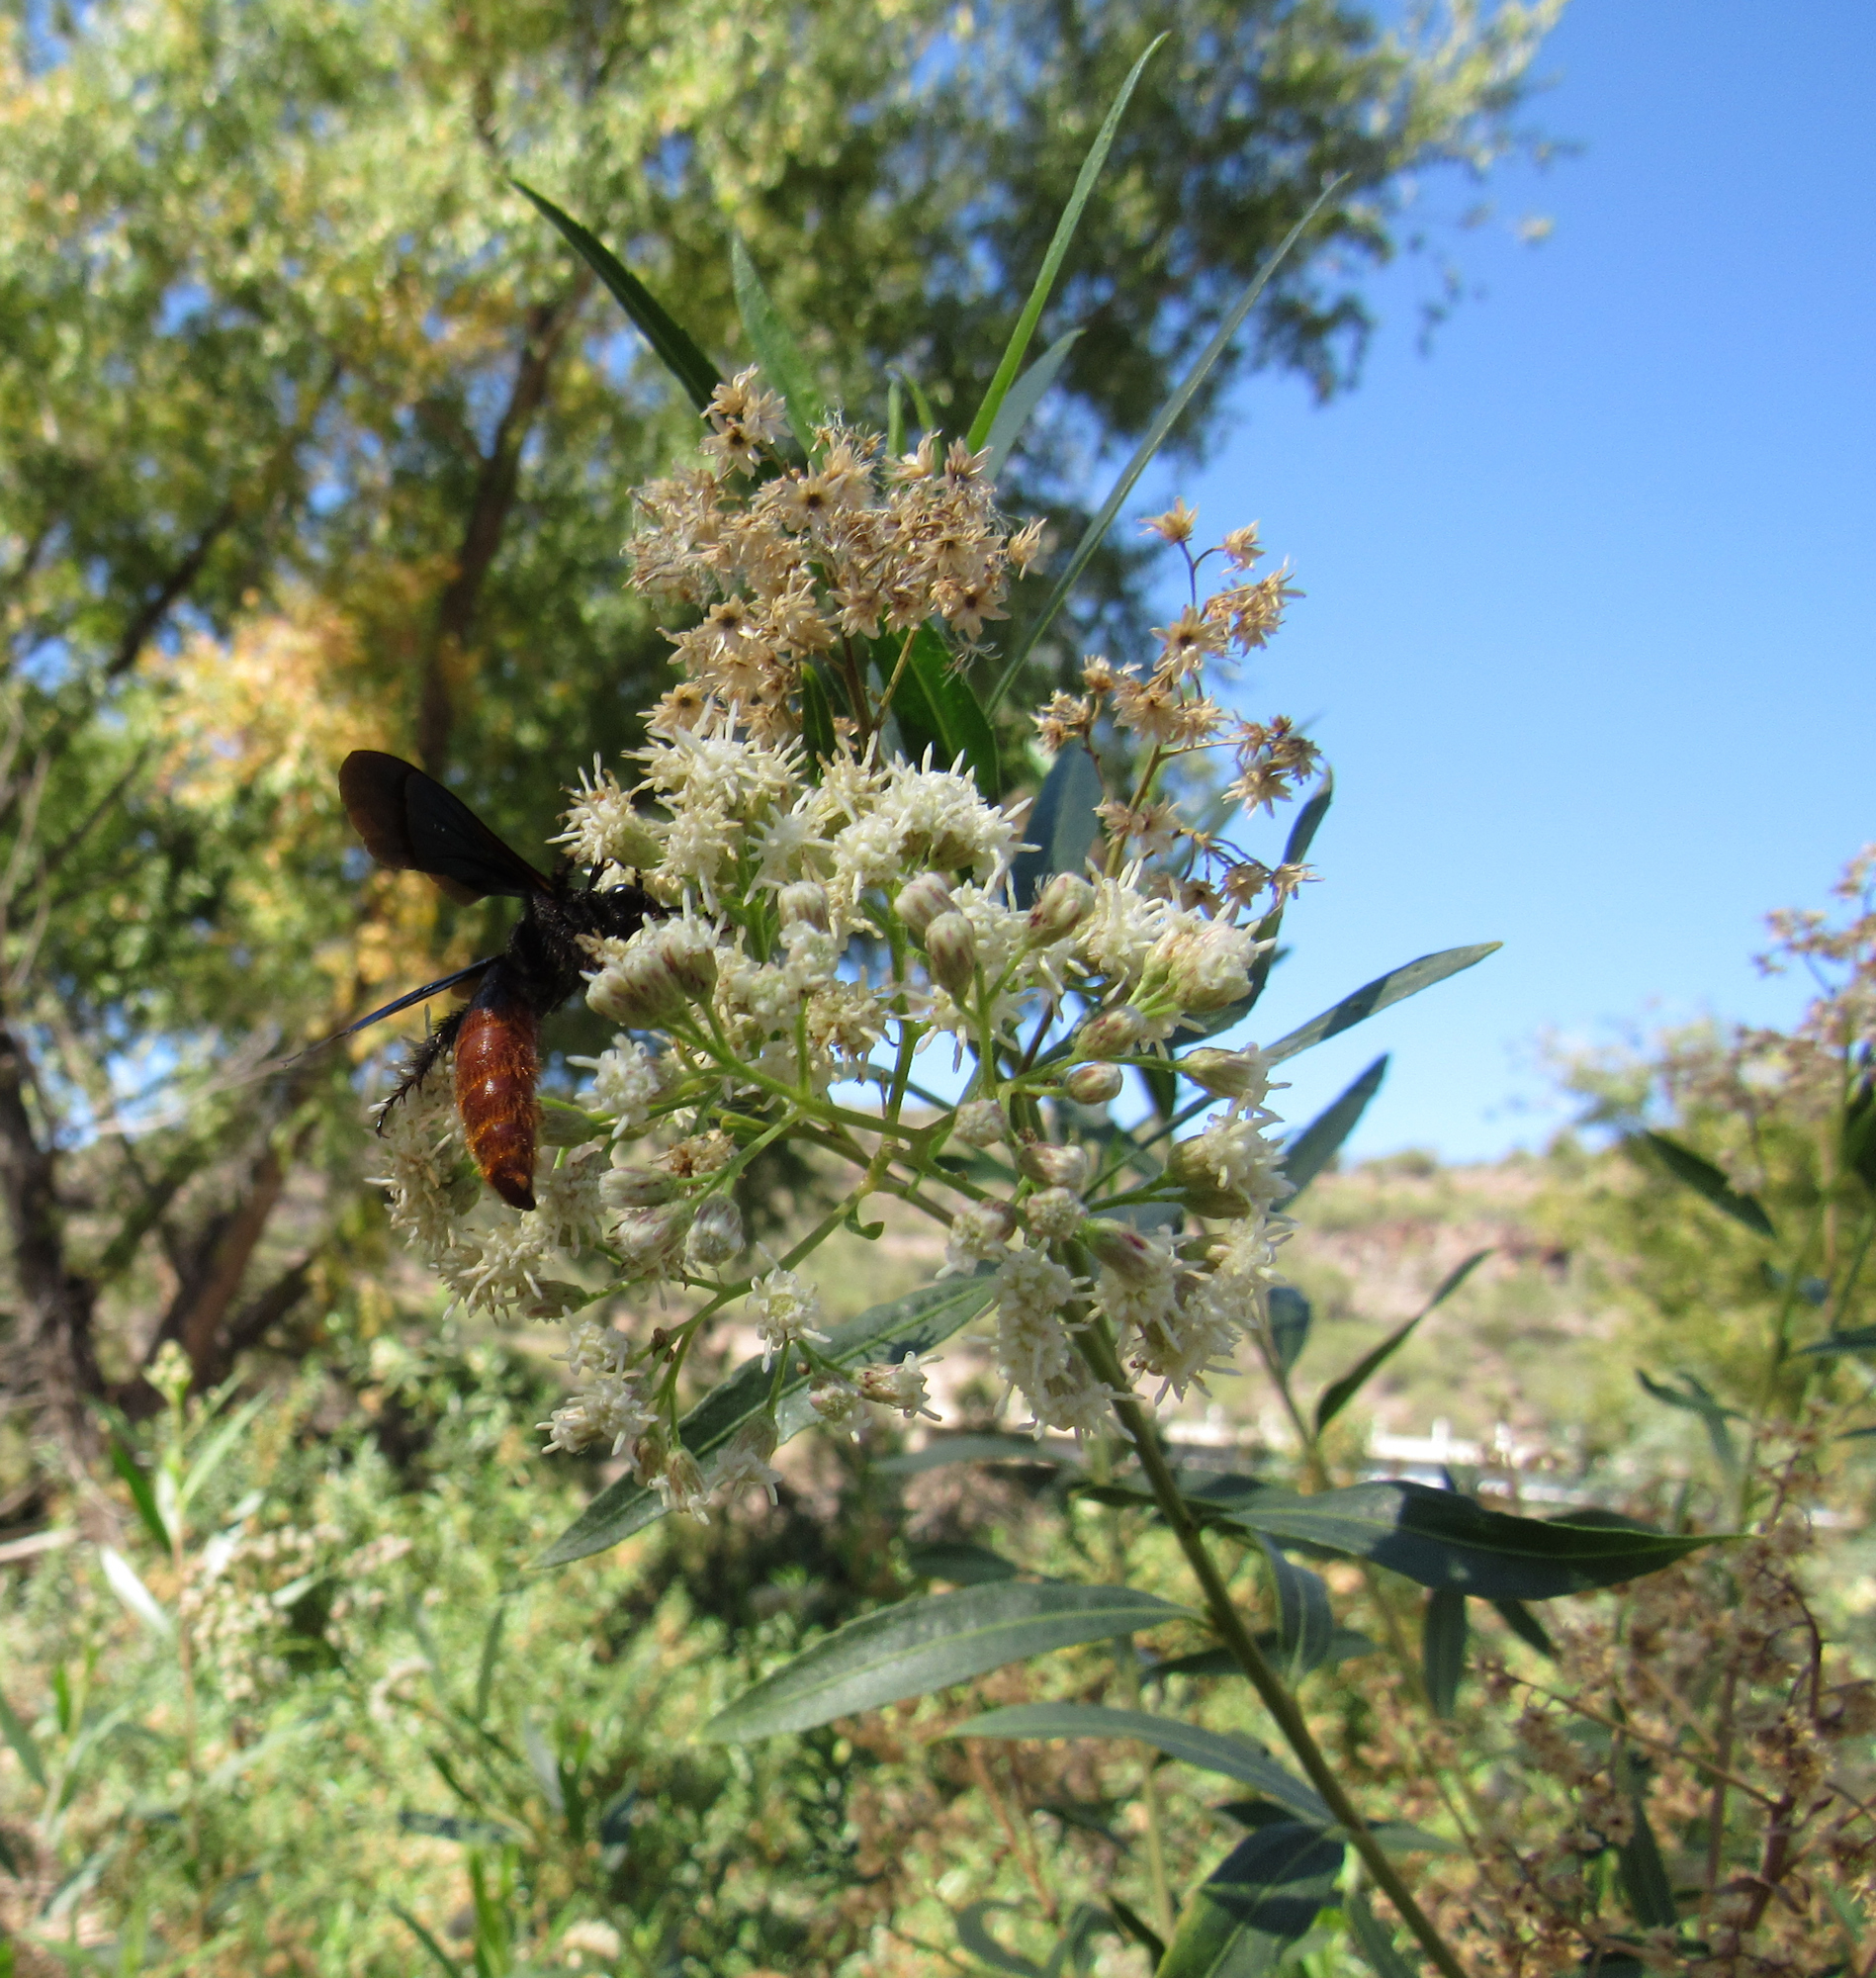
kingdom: Animalia
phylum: Arthropoda
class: Insecta
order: Hymenoptera
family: Scoliidae
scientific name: Scoliidae
